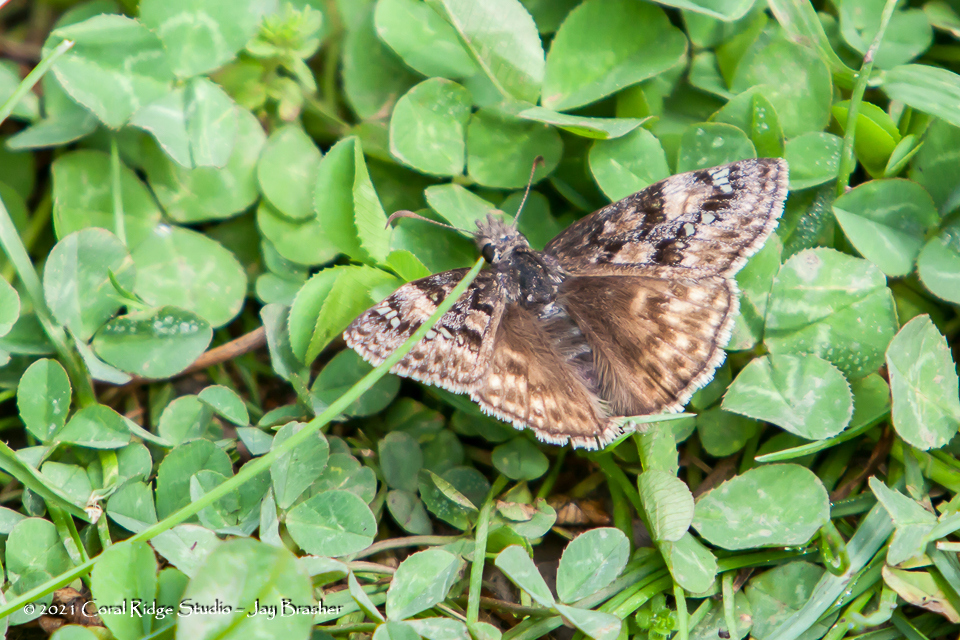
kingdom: Animalia
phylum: Arthropoda
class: Insecta
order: Lepidoptera
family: Hesperiidae
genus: Erynnis
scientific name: Erynnis horatius
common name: Horace's duskywing
